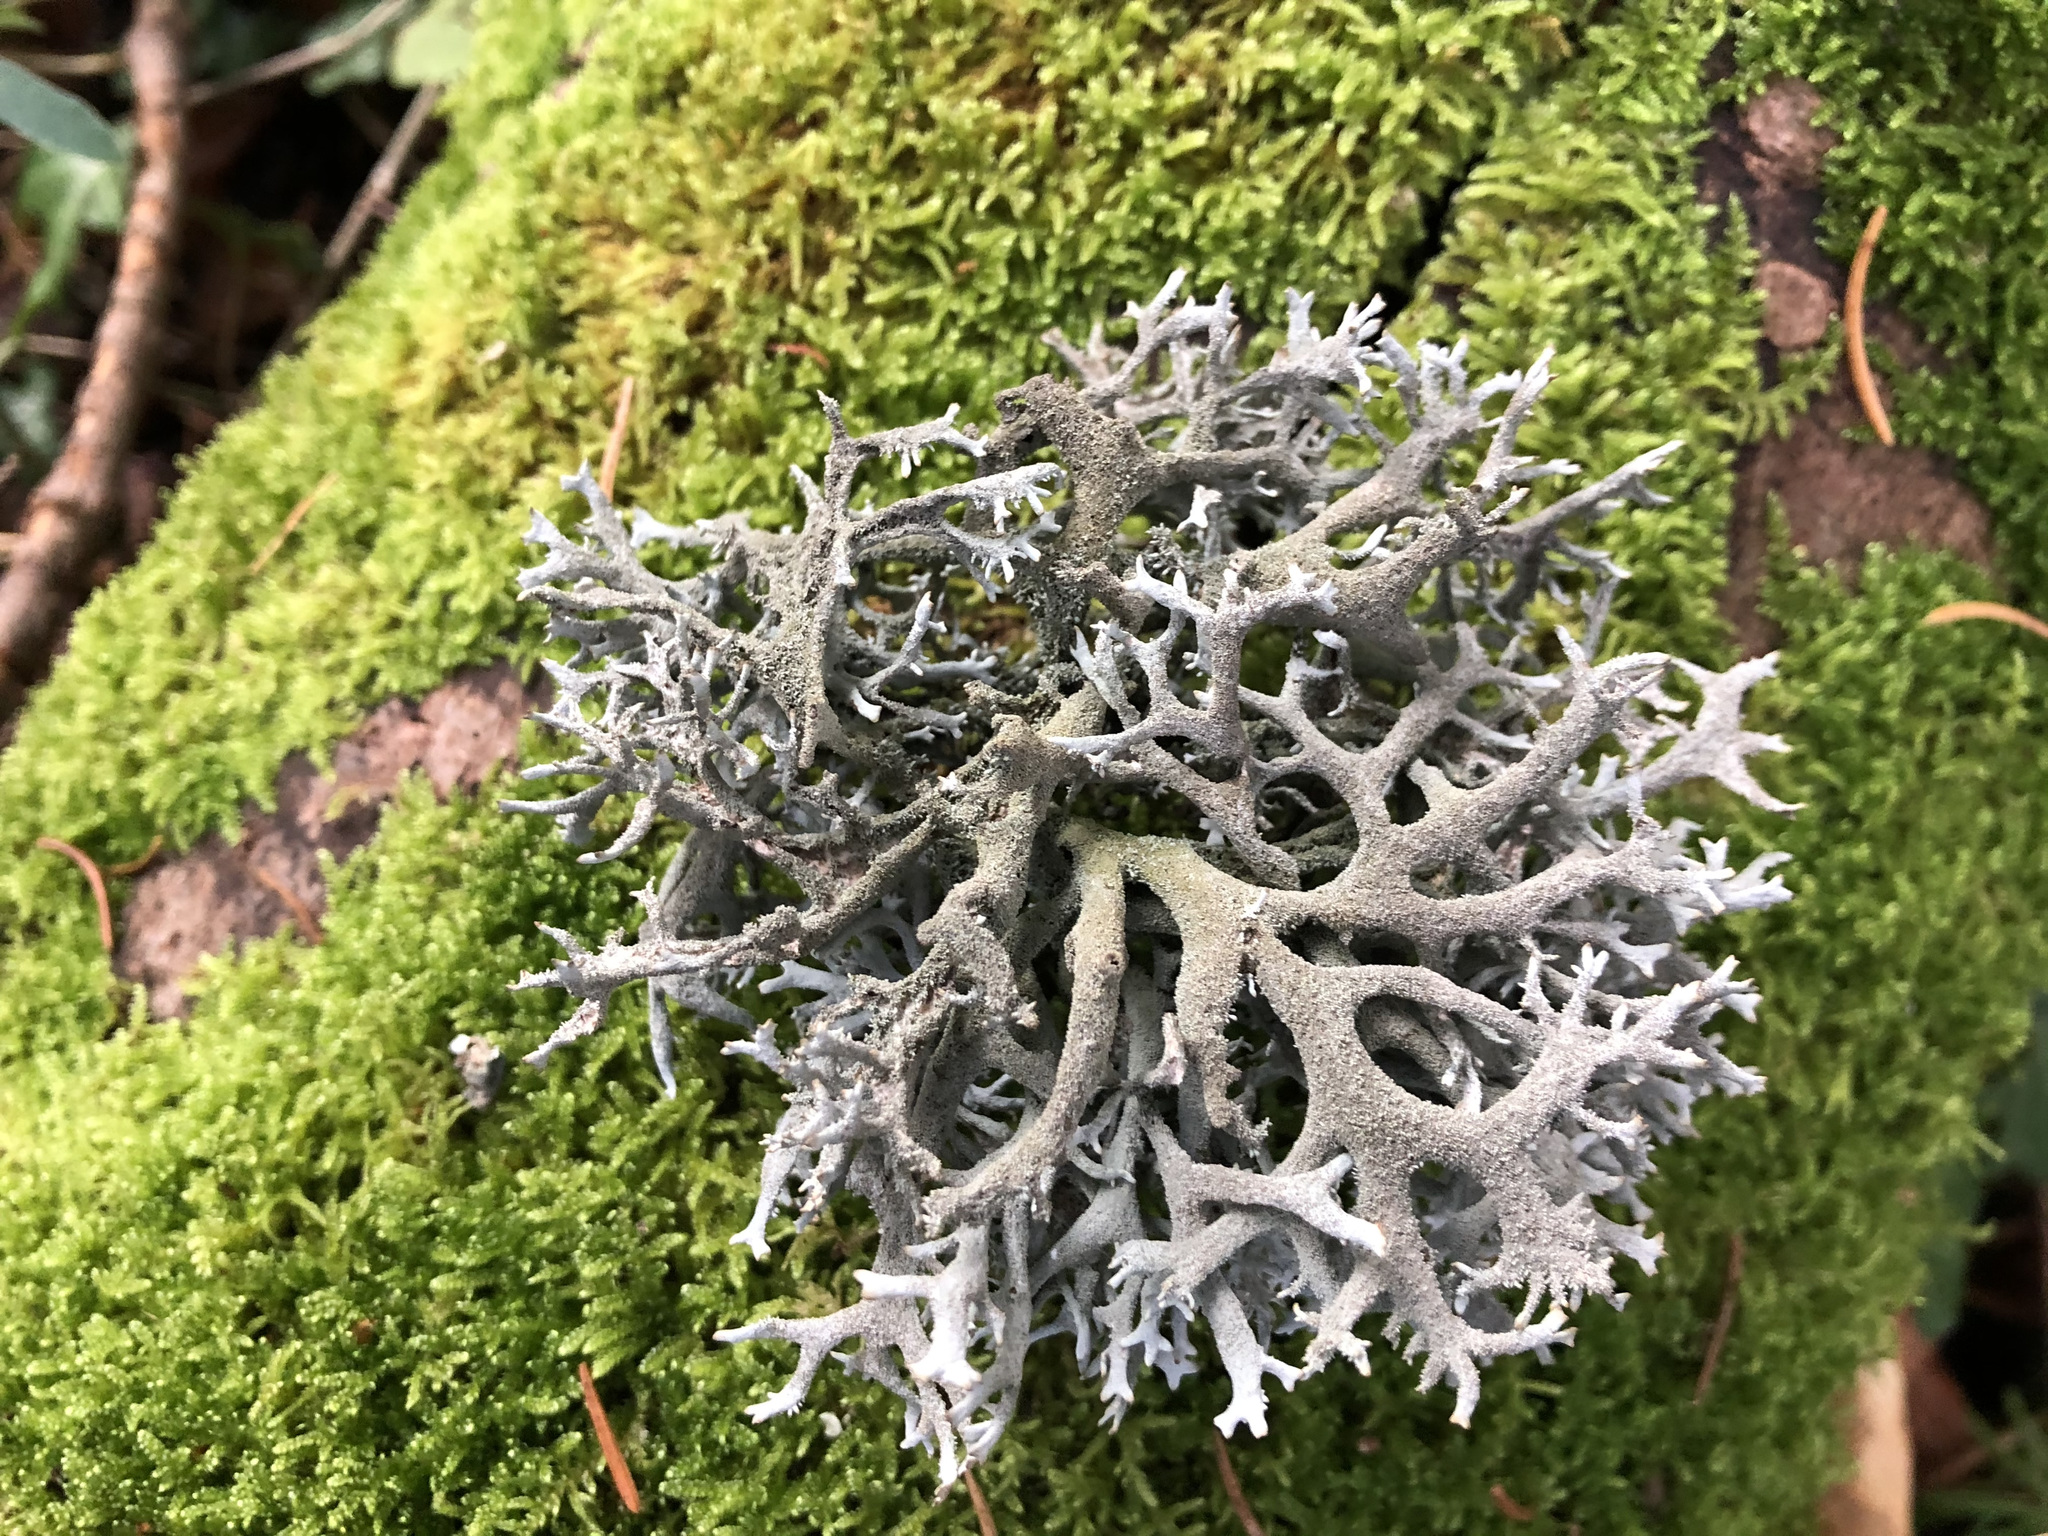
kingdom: Fungi
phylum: Ascomycota
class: Lecanoromycetes
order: Lecanorales
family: Parmeliaceae
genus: Pseudevernia
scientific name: Pseudevernia furfuracea
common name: Tree moss
